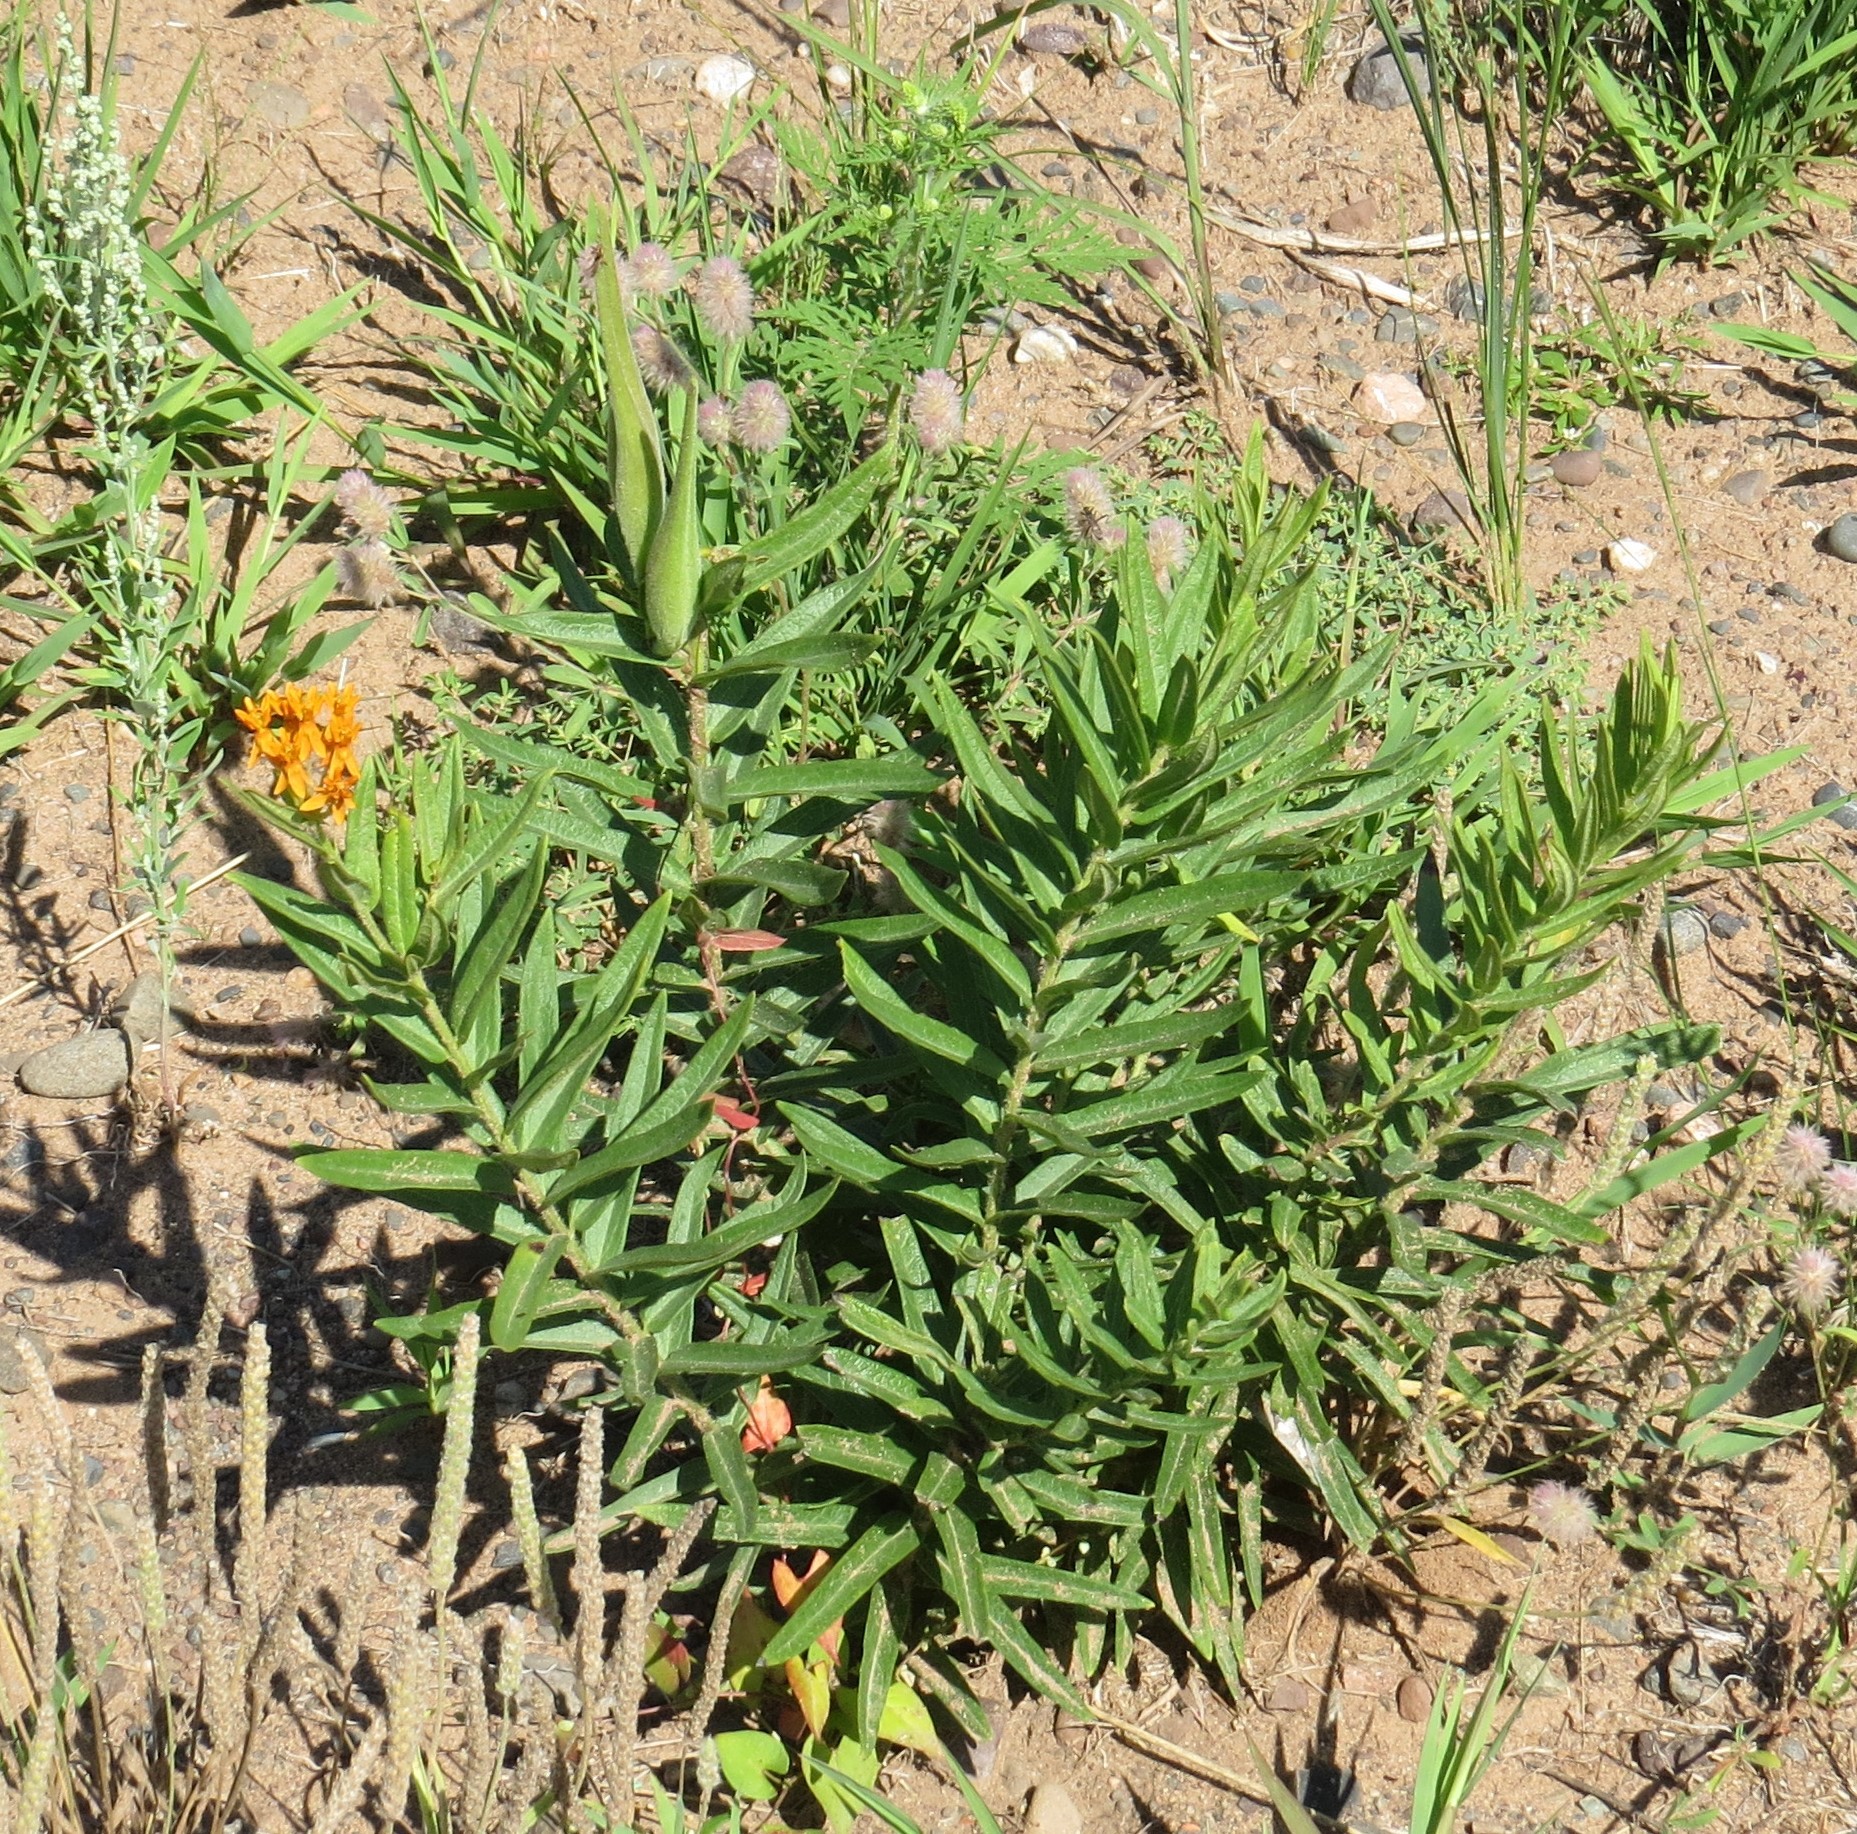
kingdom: Plantae
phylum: Tracheophyta
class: Magnoliopsida
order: Gentianales
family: Apocynaceae
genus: Asclepias
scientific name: Asclepias tuberosa
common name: Butterfly milkweed
